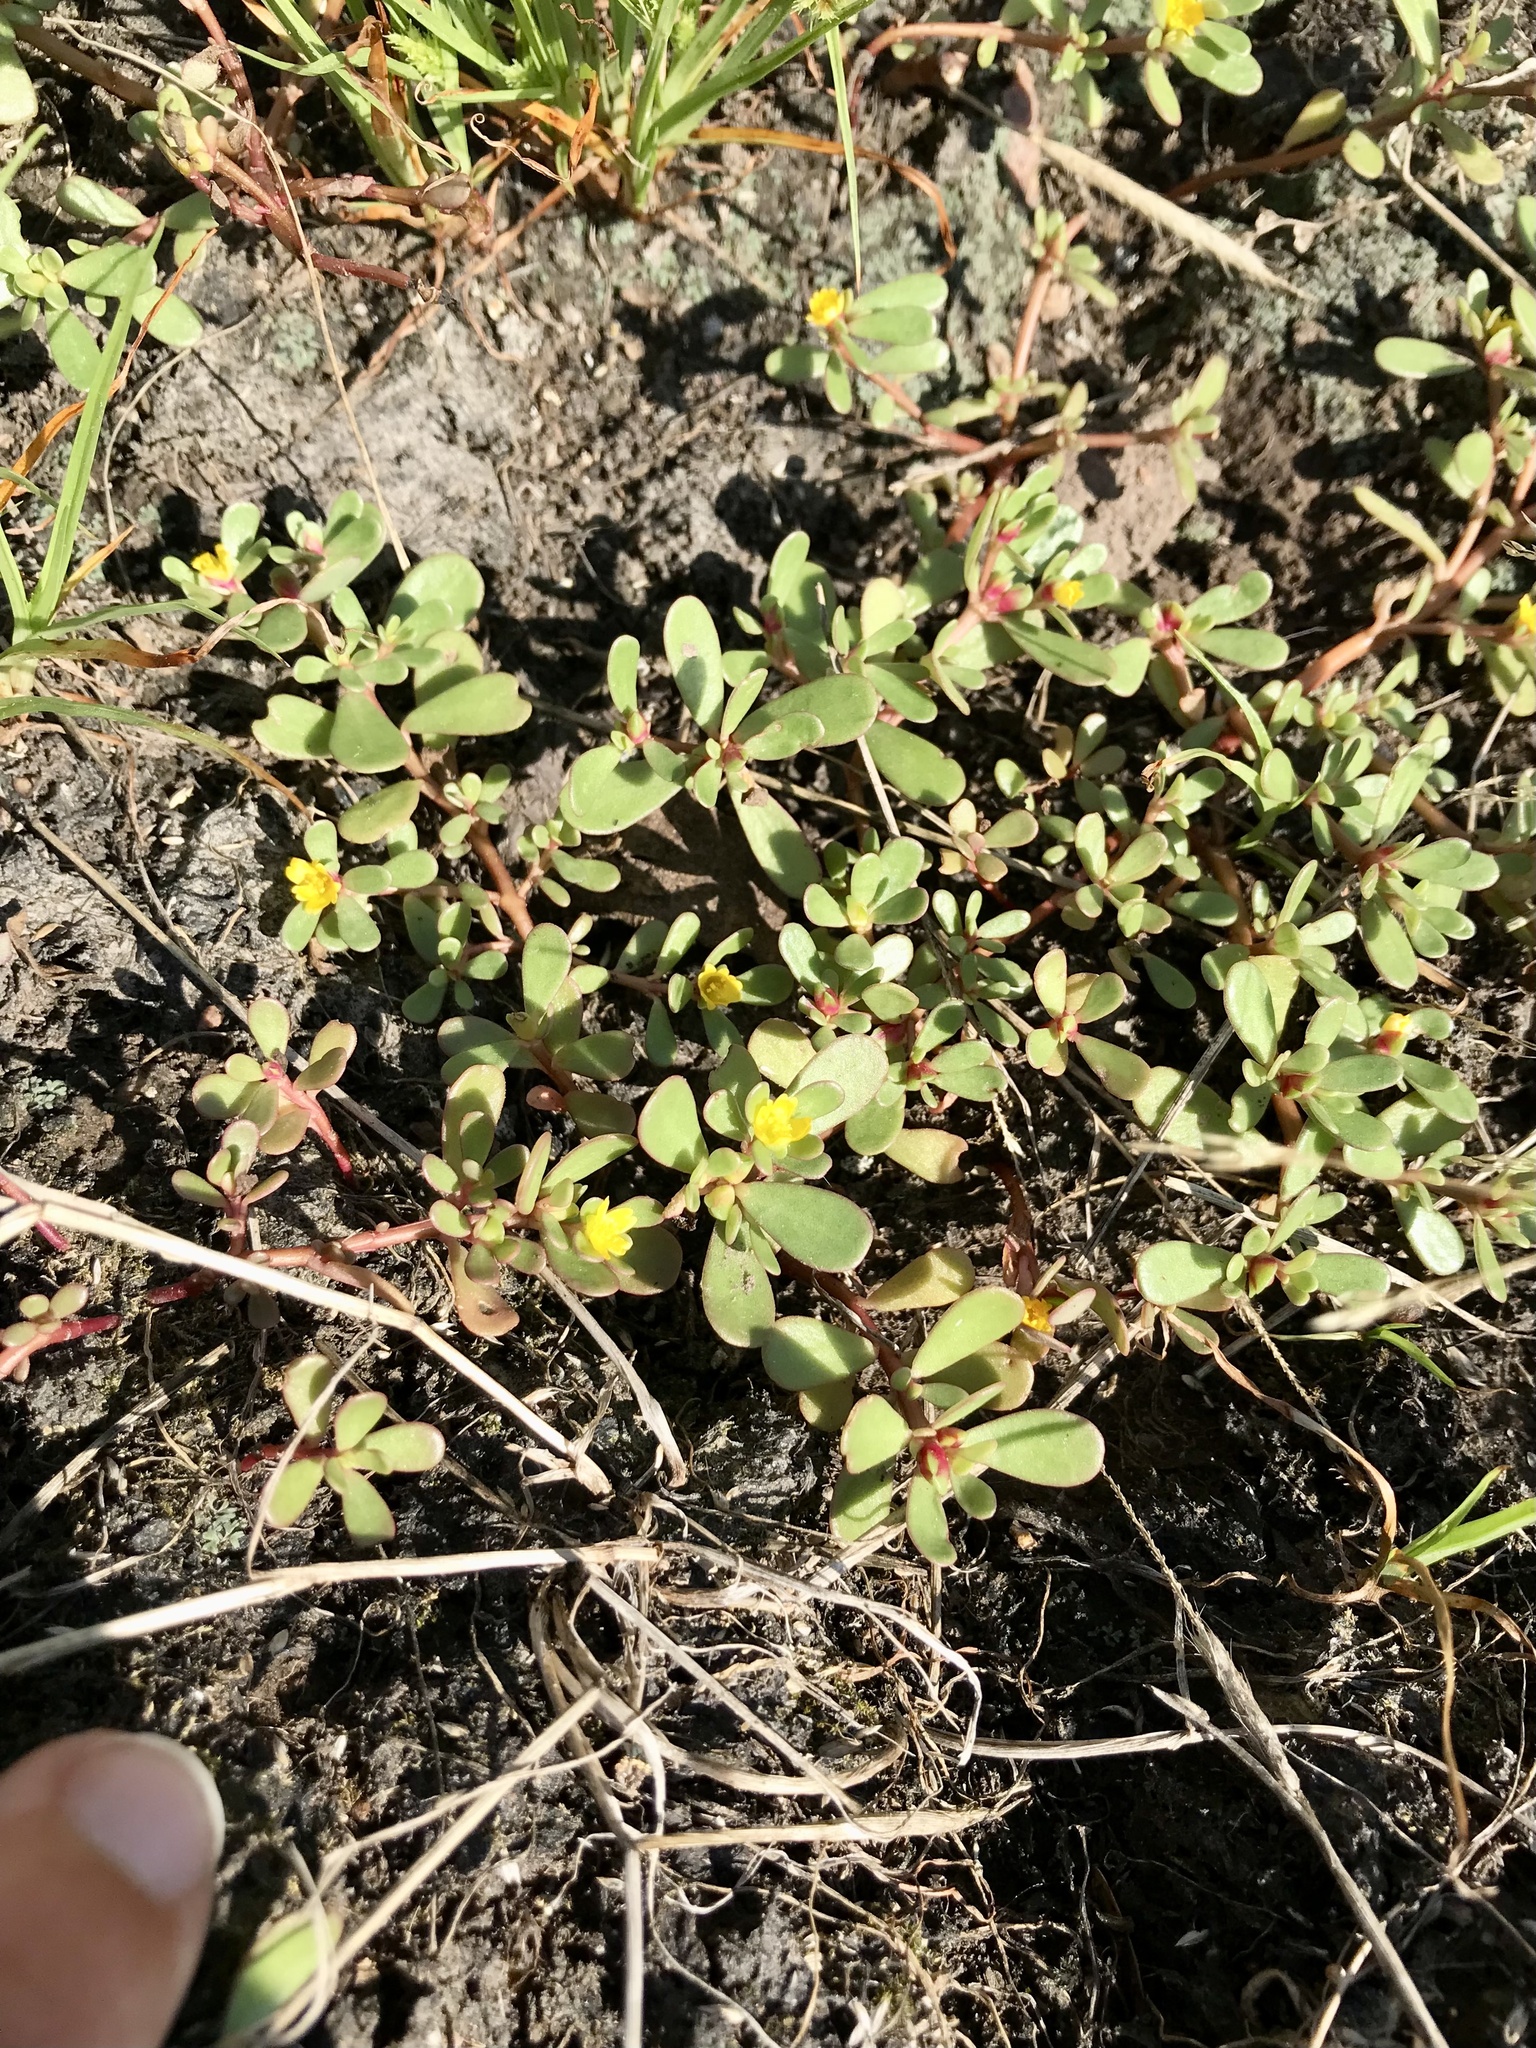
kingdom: Plantae
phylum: Tracheophyta
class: Magnoliopsida
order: Caryophyllales
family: Portulacaceae
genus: Portulaca
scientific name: Portulaca oleracea
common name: Common purslane
